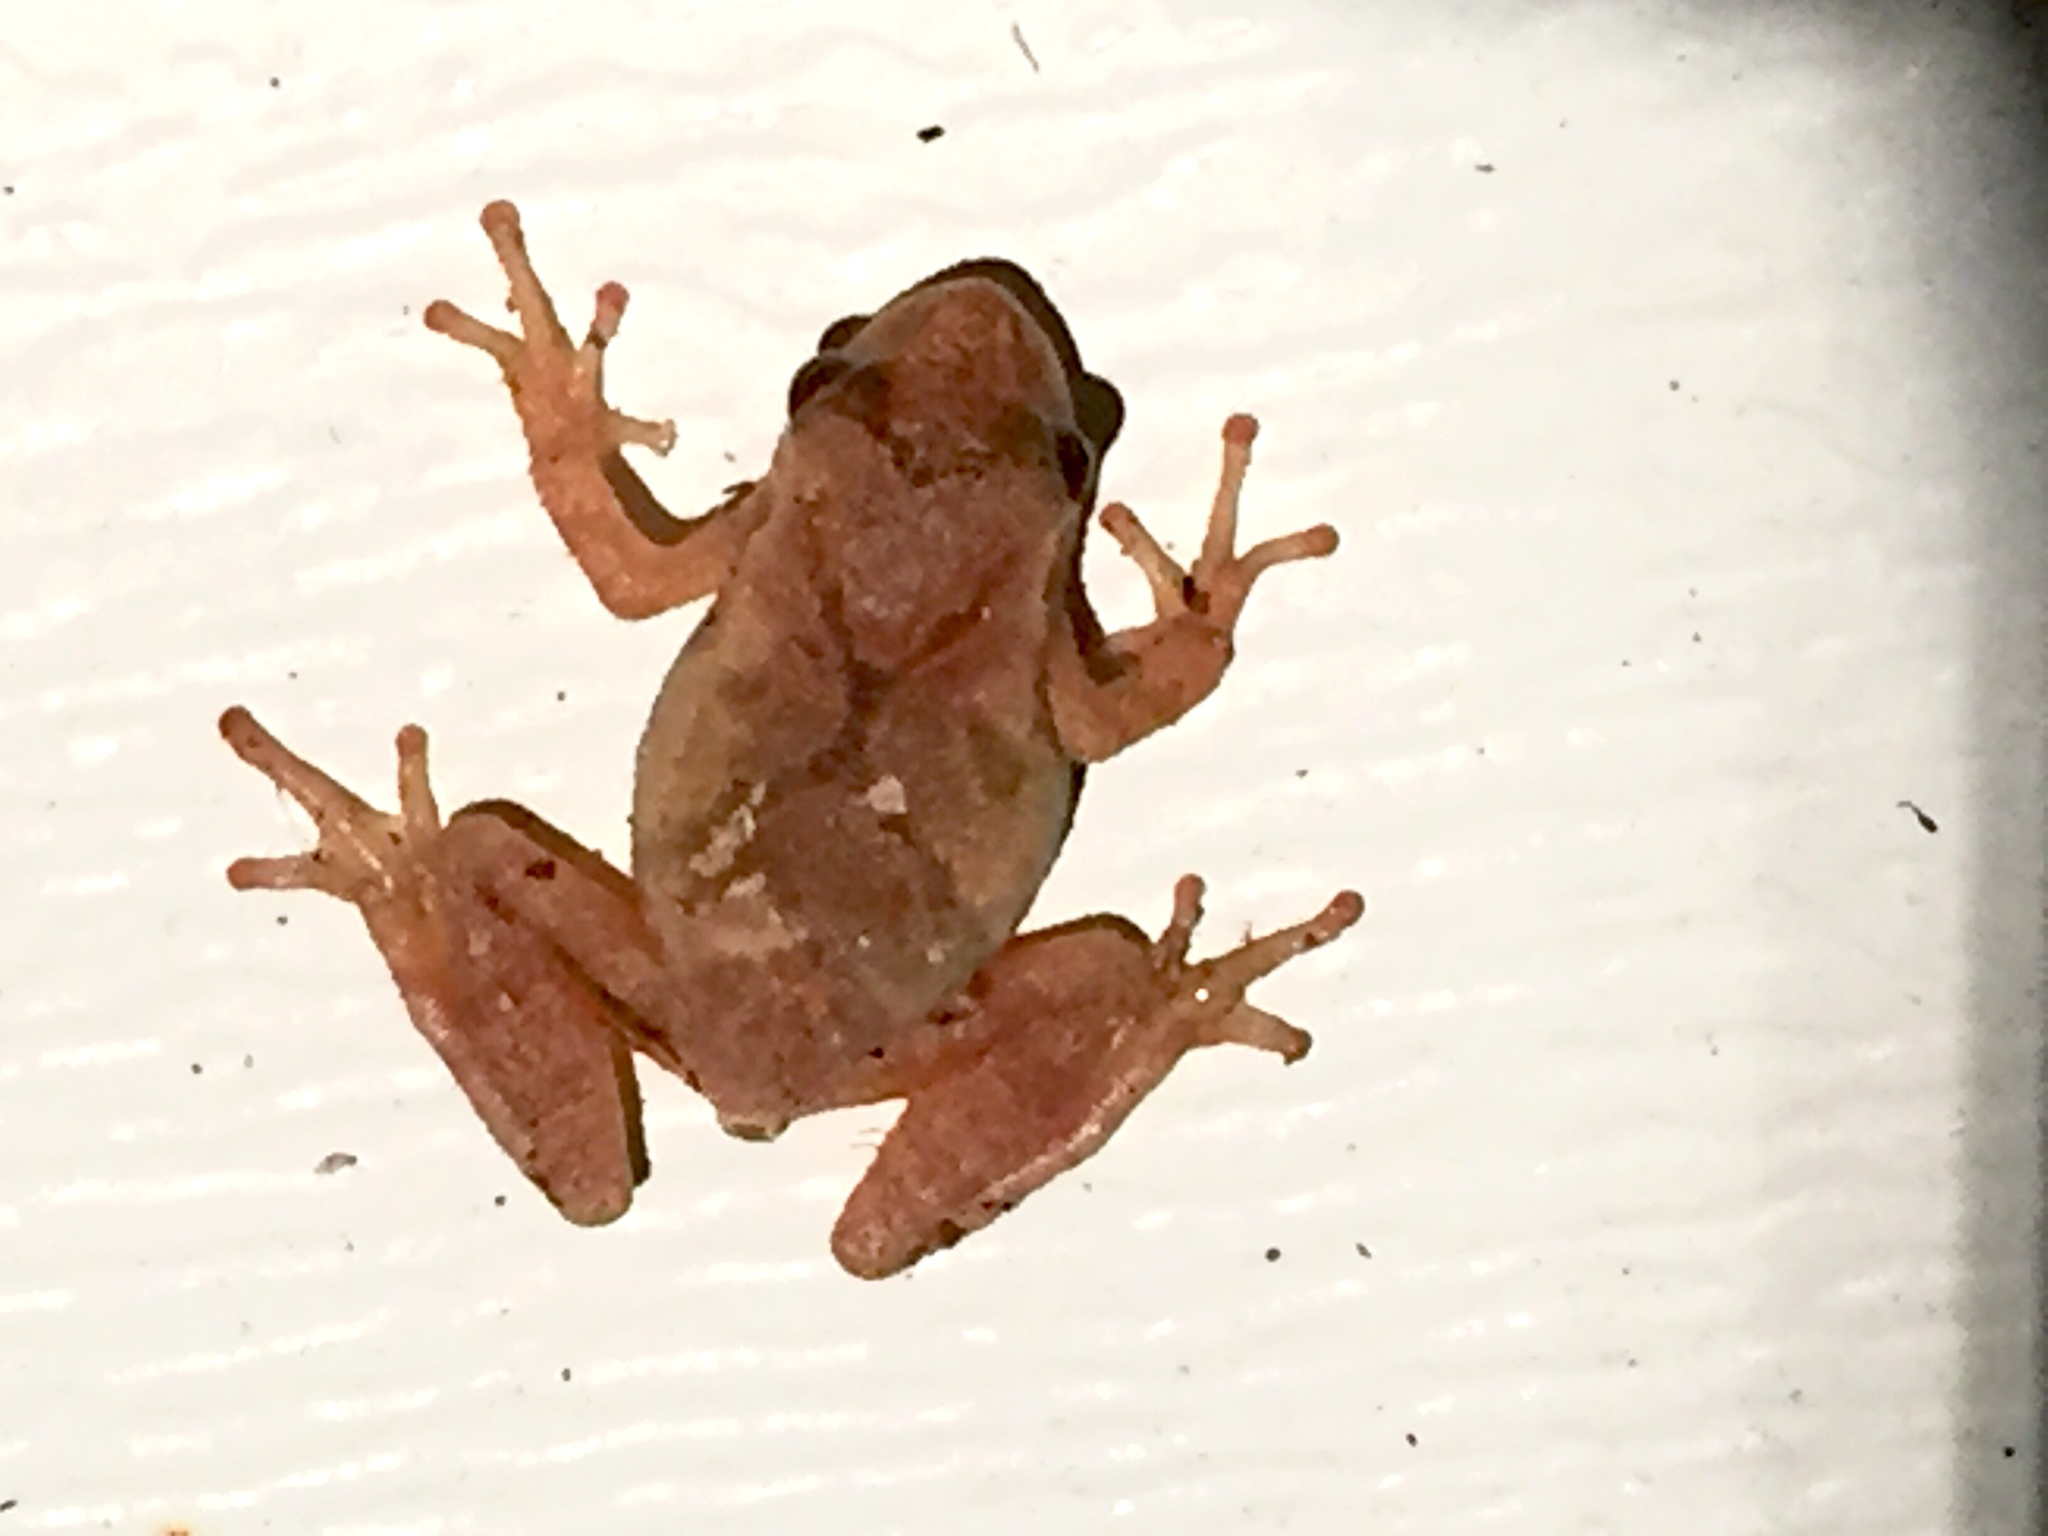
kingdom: Animalia
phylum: Chordata
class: Amphibia
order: Anura
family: Hylidae
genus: Pseudacris
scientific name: Pseudacris crucifer
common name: Spring peeper
